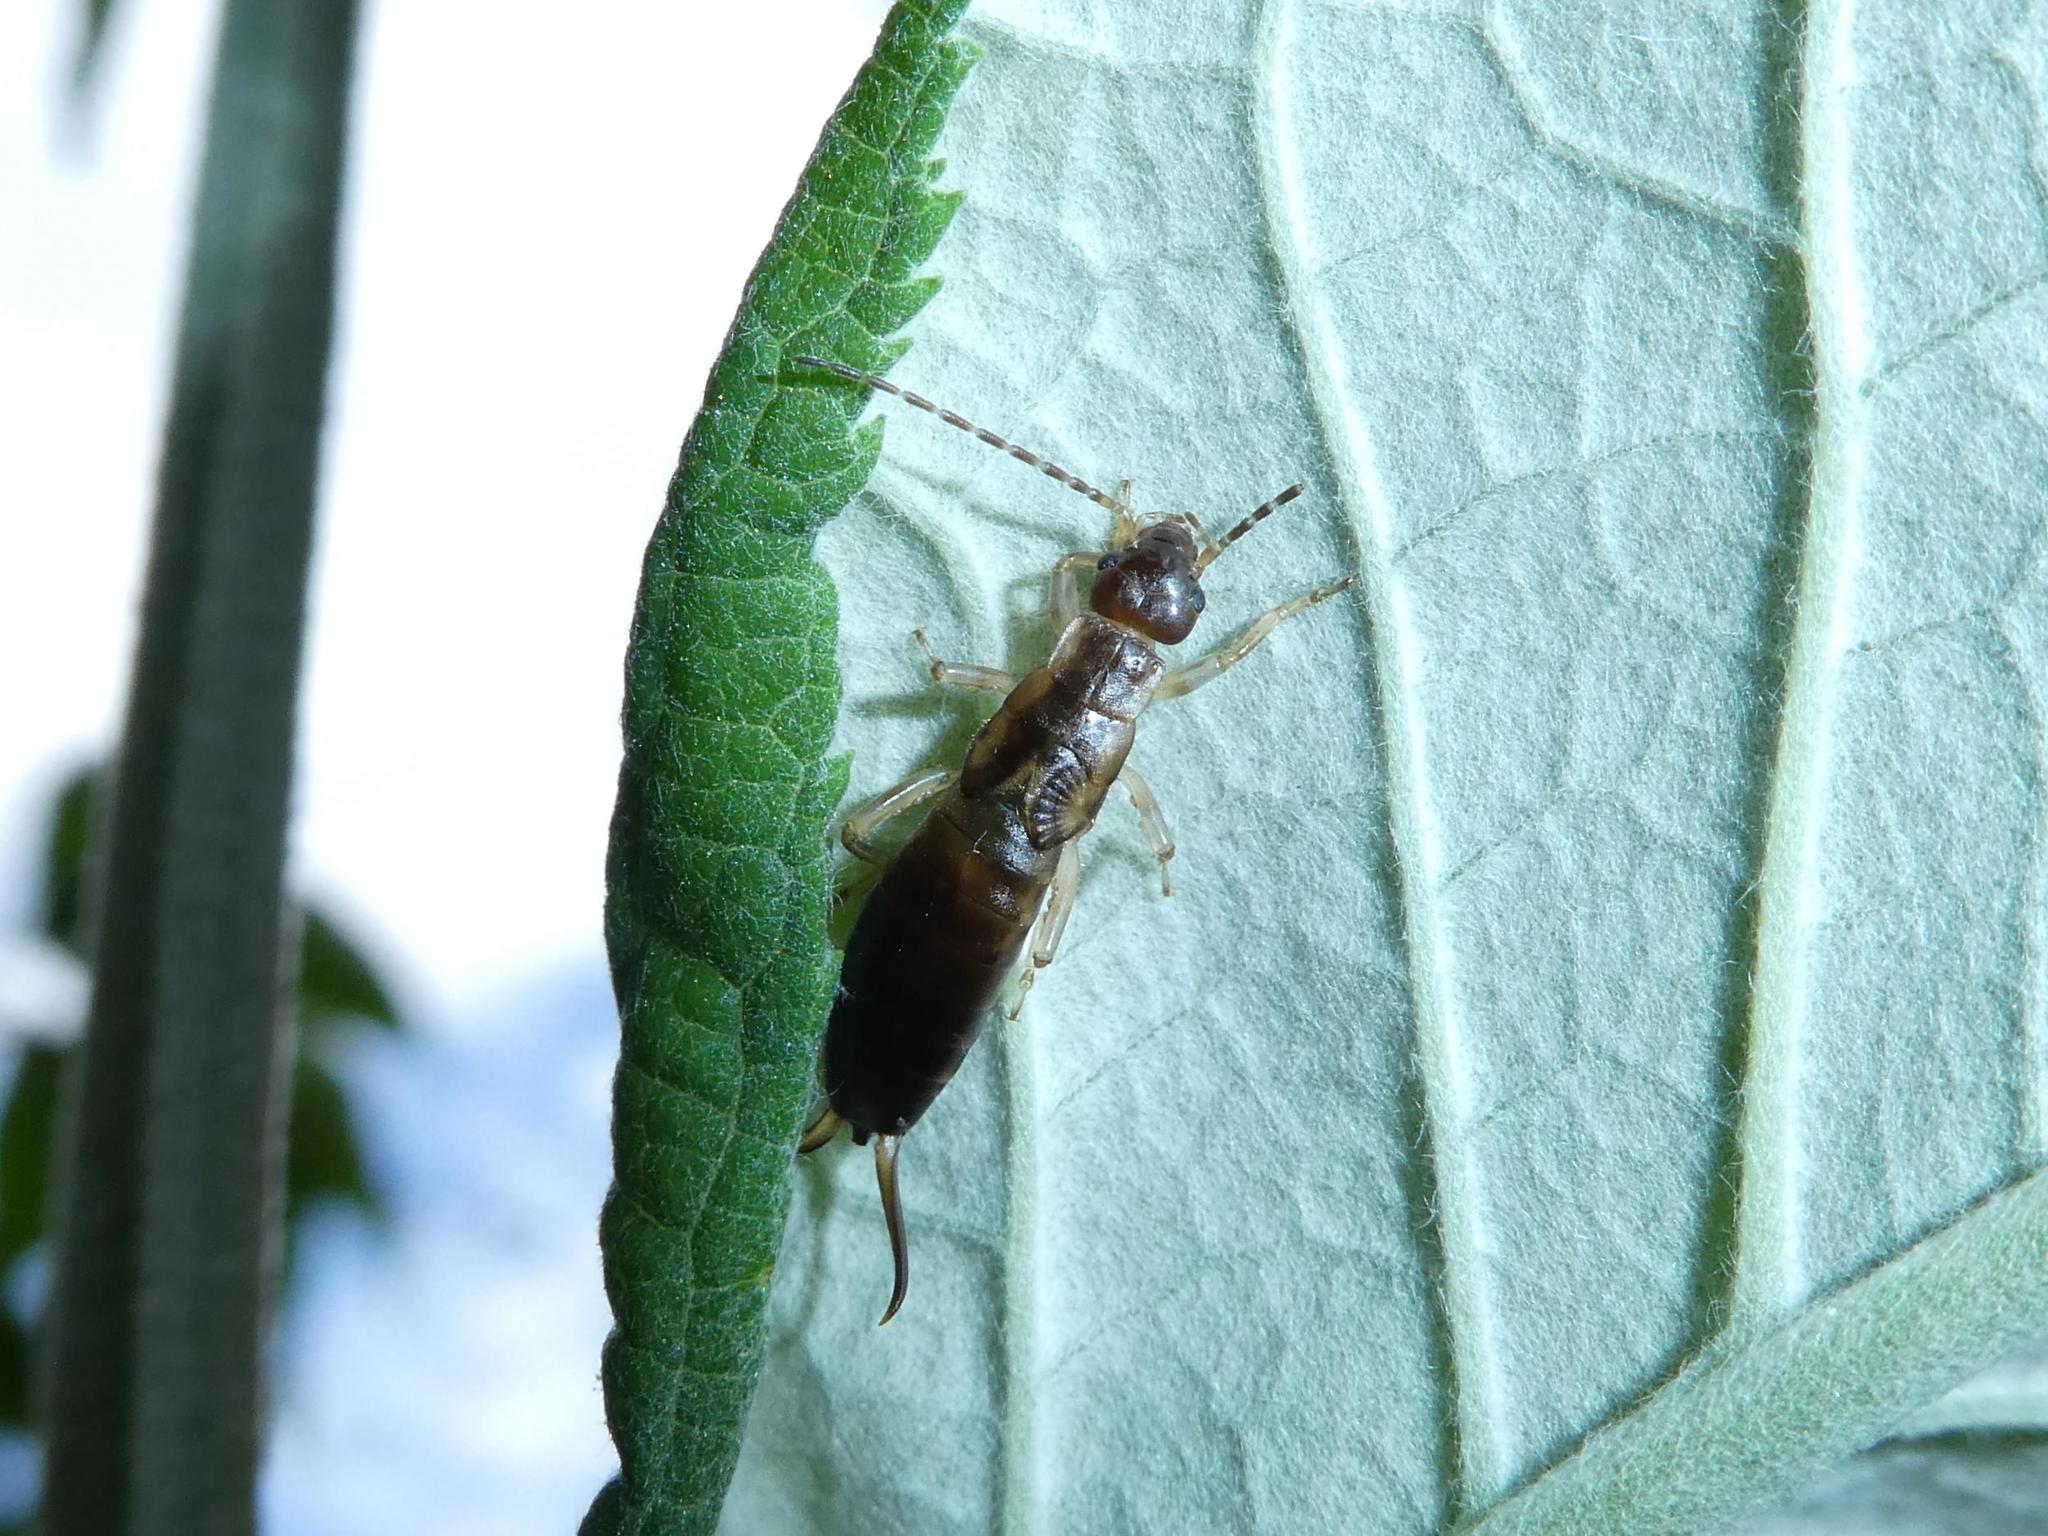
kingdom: Animalia
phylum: Arthropoda
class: Insecta
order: Dermaptera
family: Forficulidae
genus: Forficula
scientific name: Forficula
